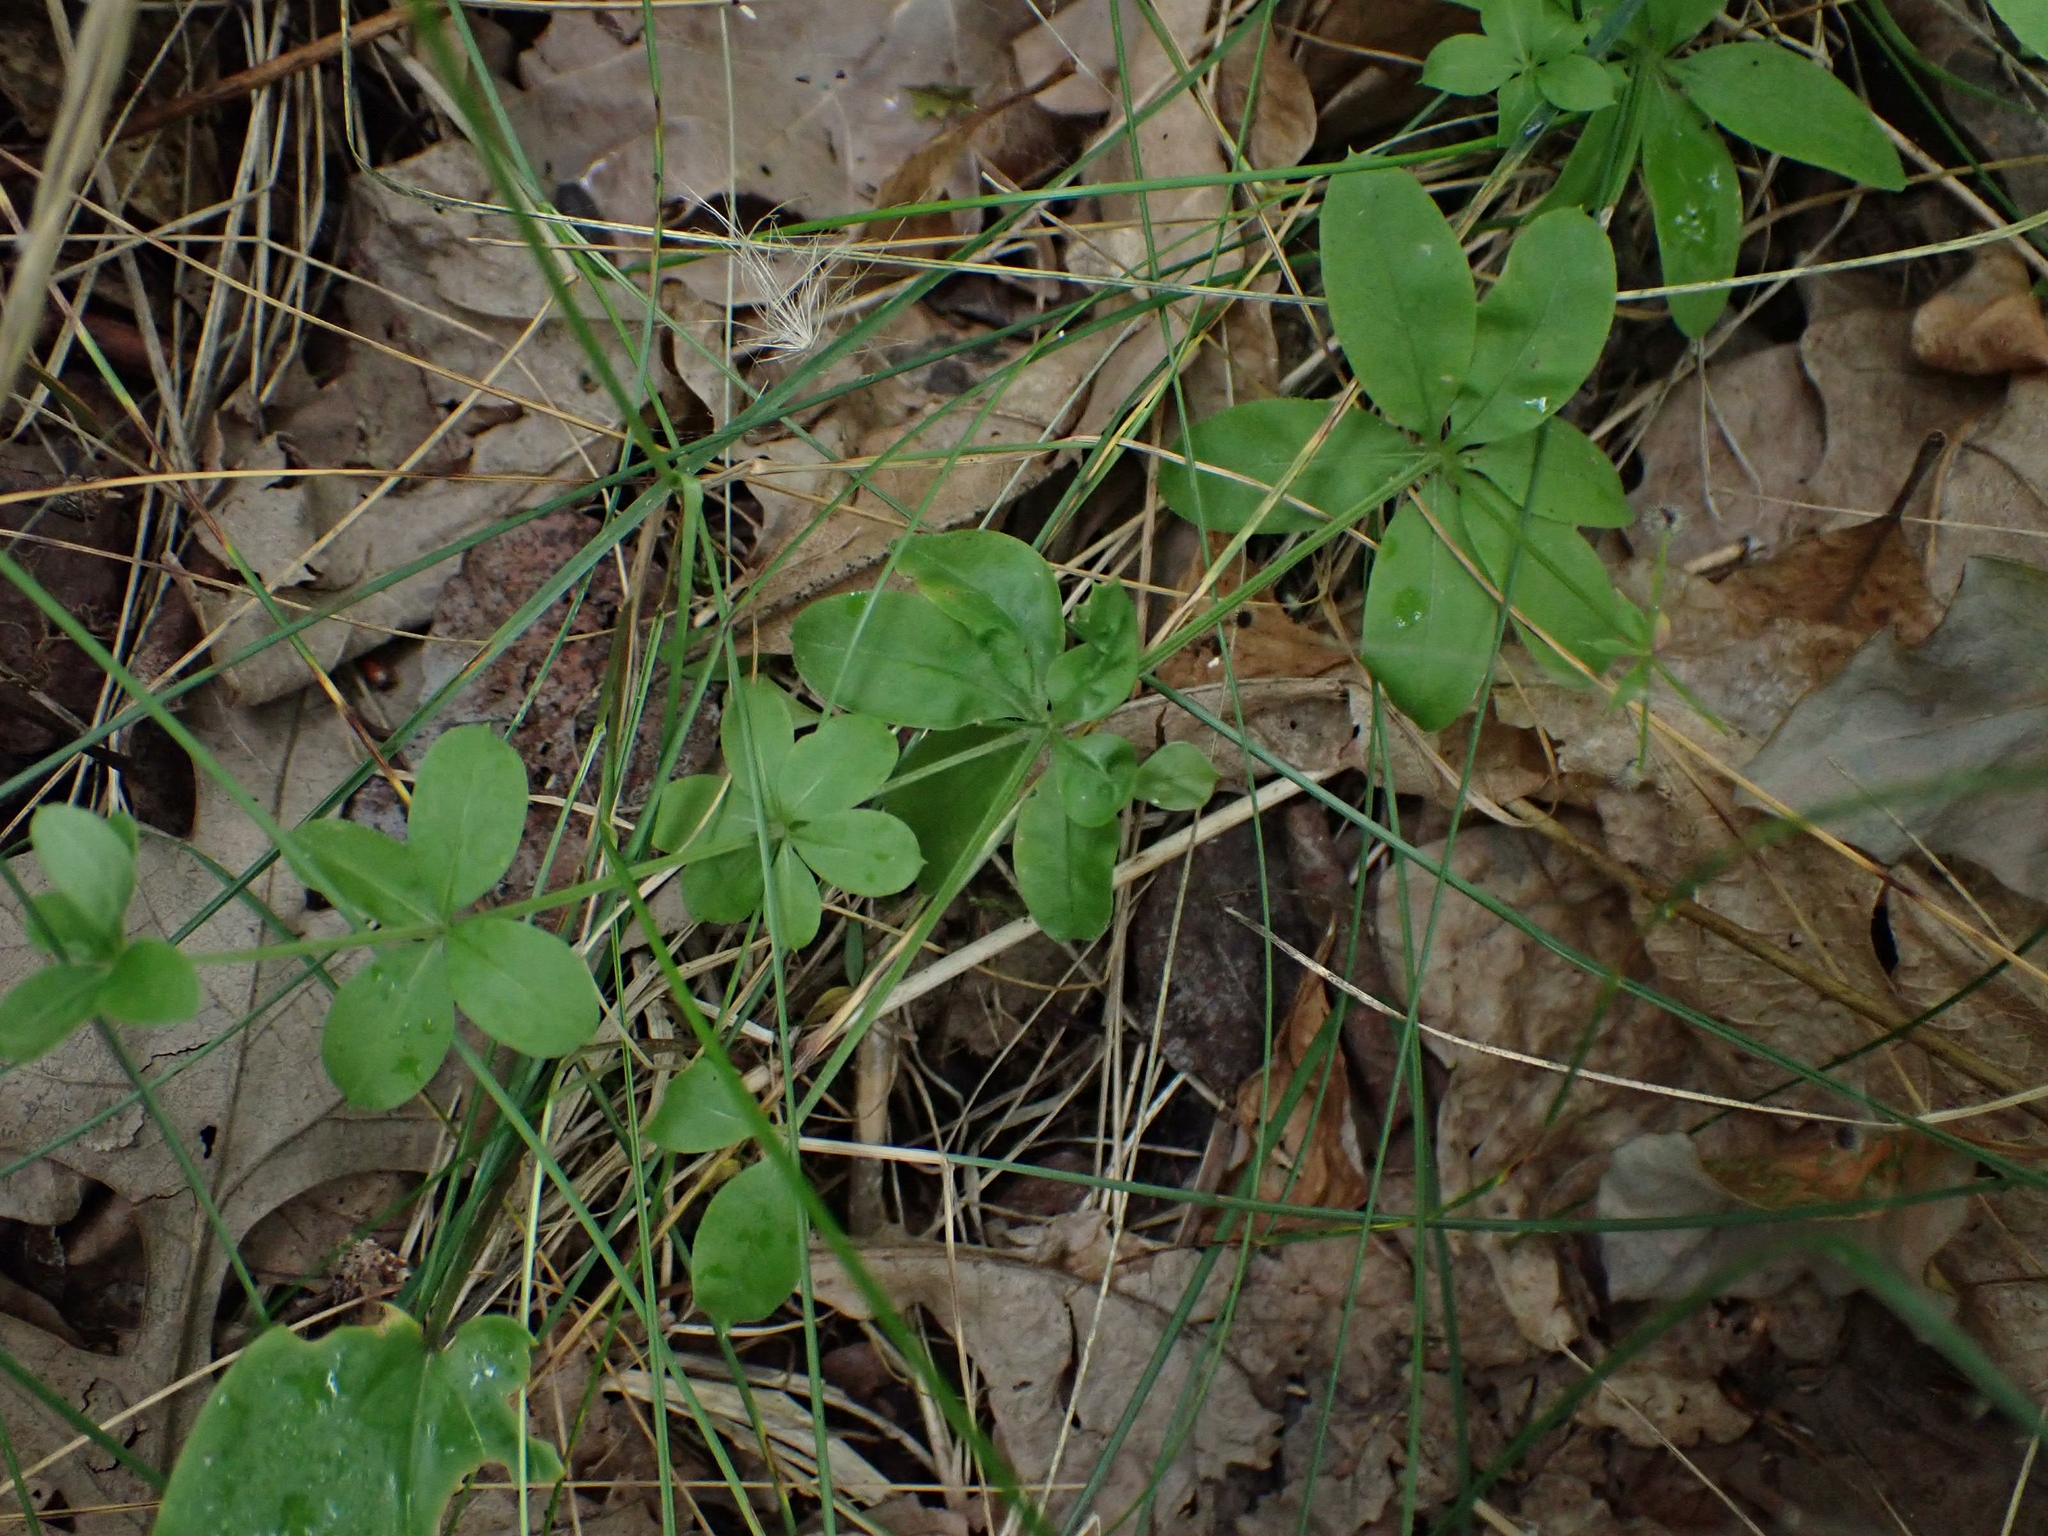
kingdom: Plantae
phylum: Tracheophyta
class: Magnoliopsida
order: Gentianales
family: Rubiaceae
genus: Galium
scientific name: Galium triflorum
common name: Fragrant bedstraw
